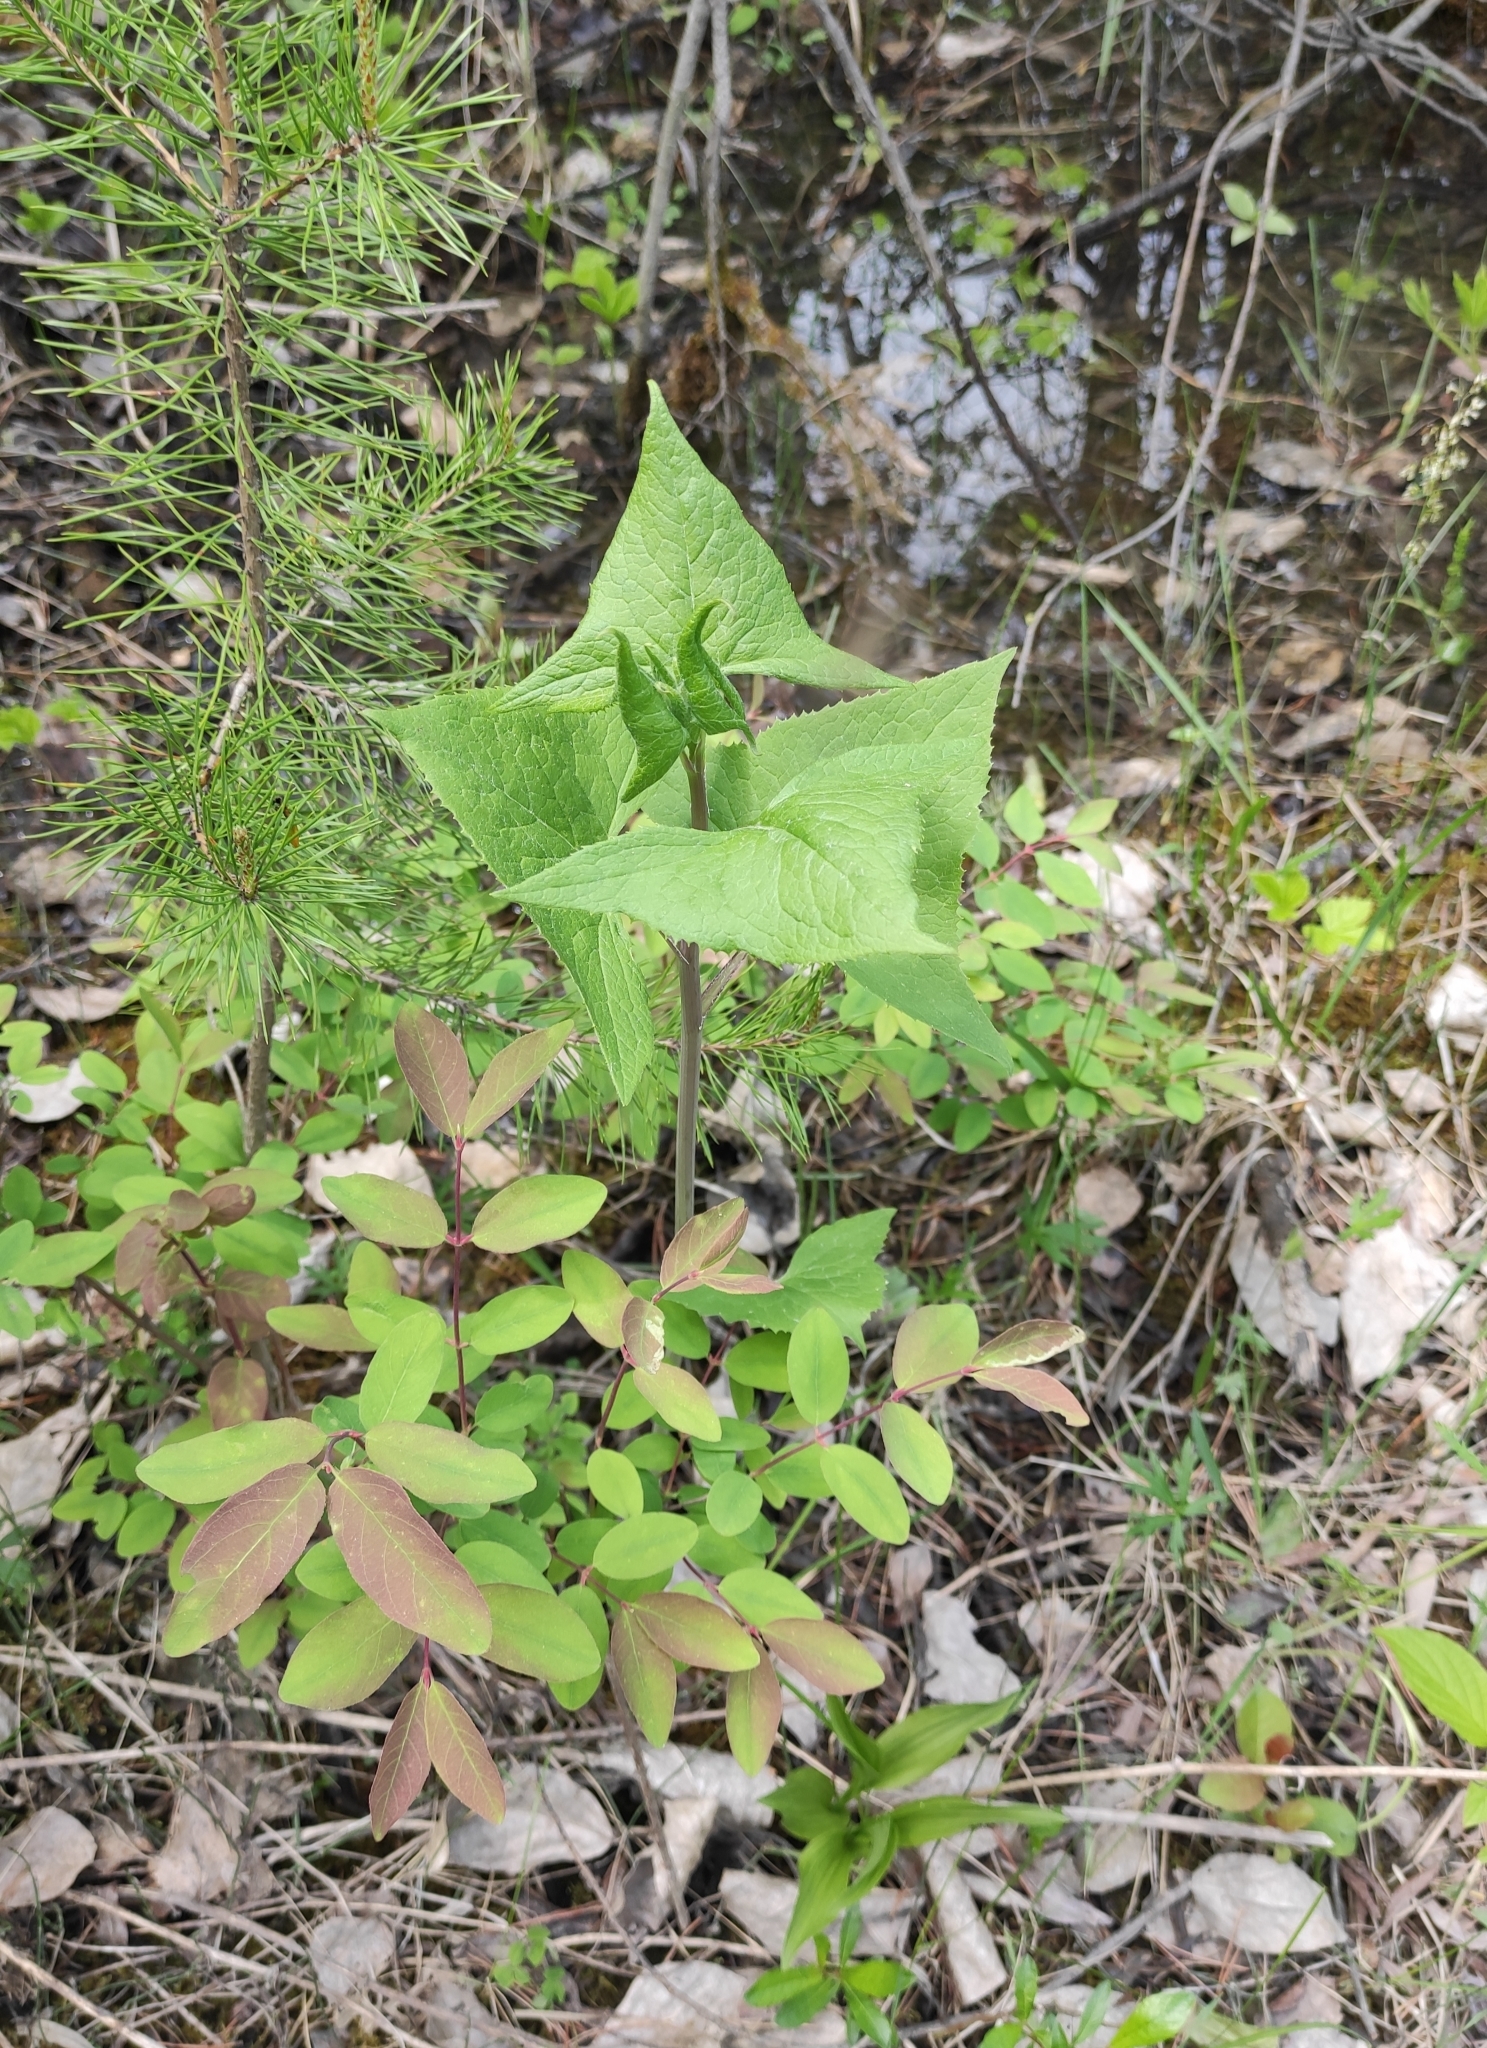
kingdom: Plantae
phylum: Tracheophyta
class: Magnoliopsida
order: Asterales
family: Asteraceae
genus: Parasenecio
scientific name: Parasenecio hastatus
